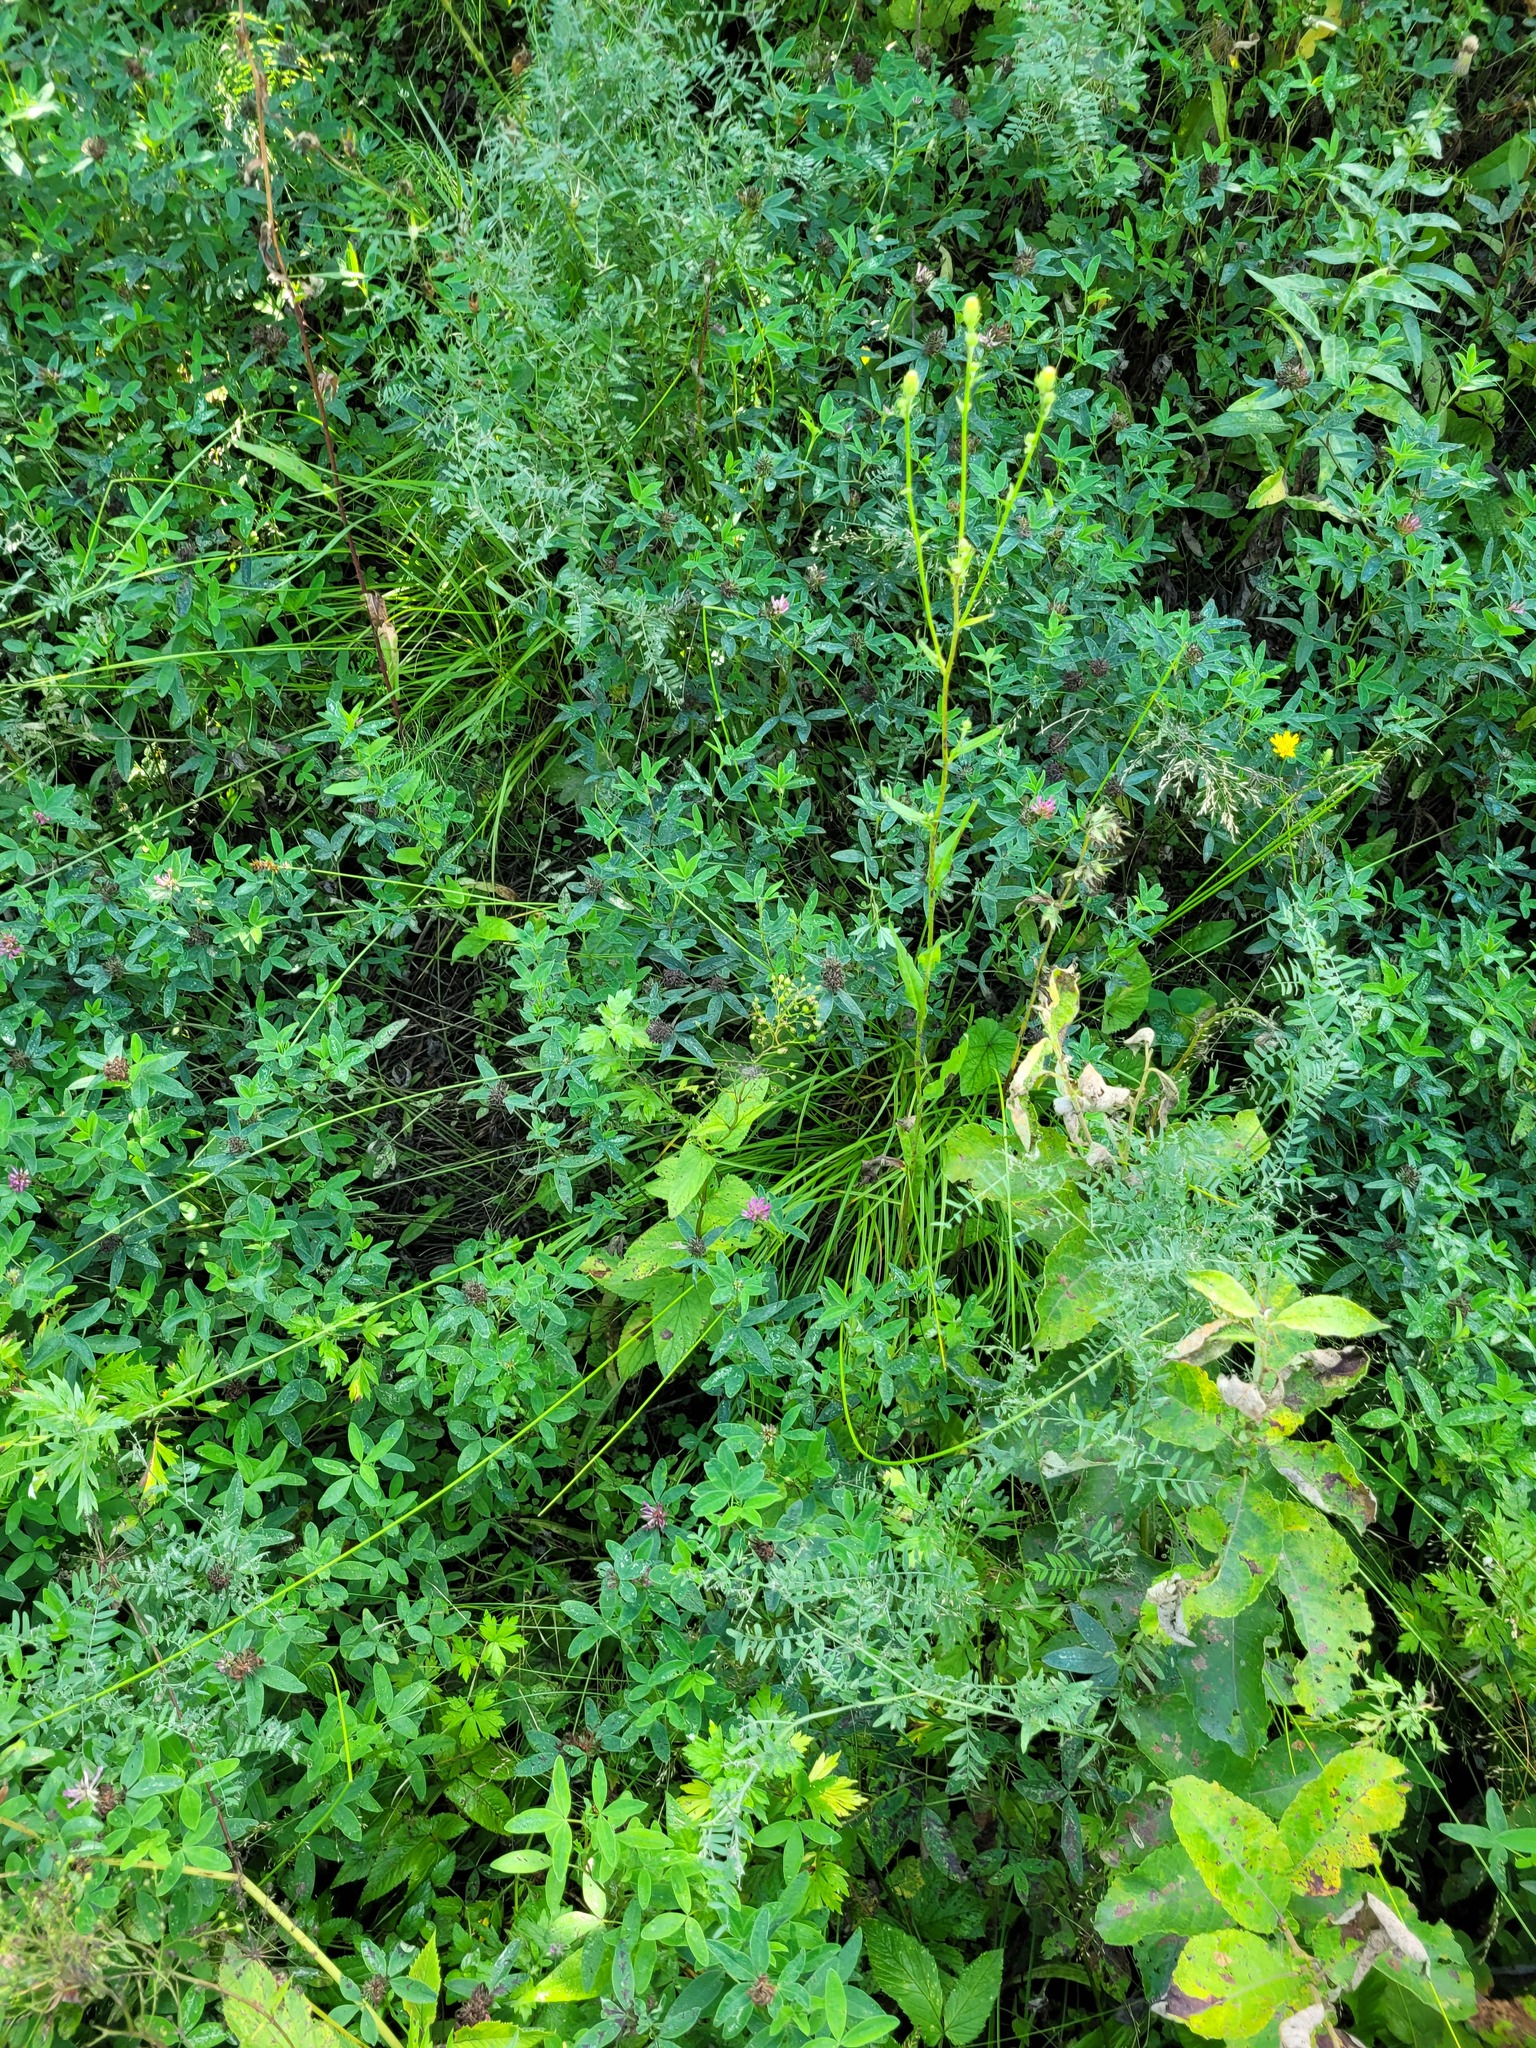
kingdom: Plantae
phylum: Tracheophyta
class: Magnoliopsida
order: Fabales
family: Fabaceae
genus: Trifolium
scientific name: Trifolium medium
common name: Zigzag clover
